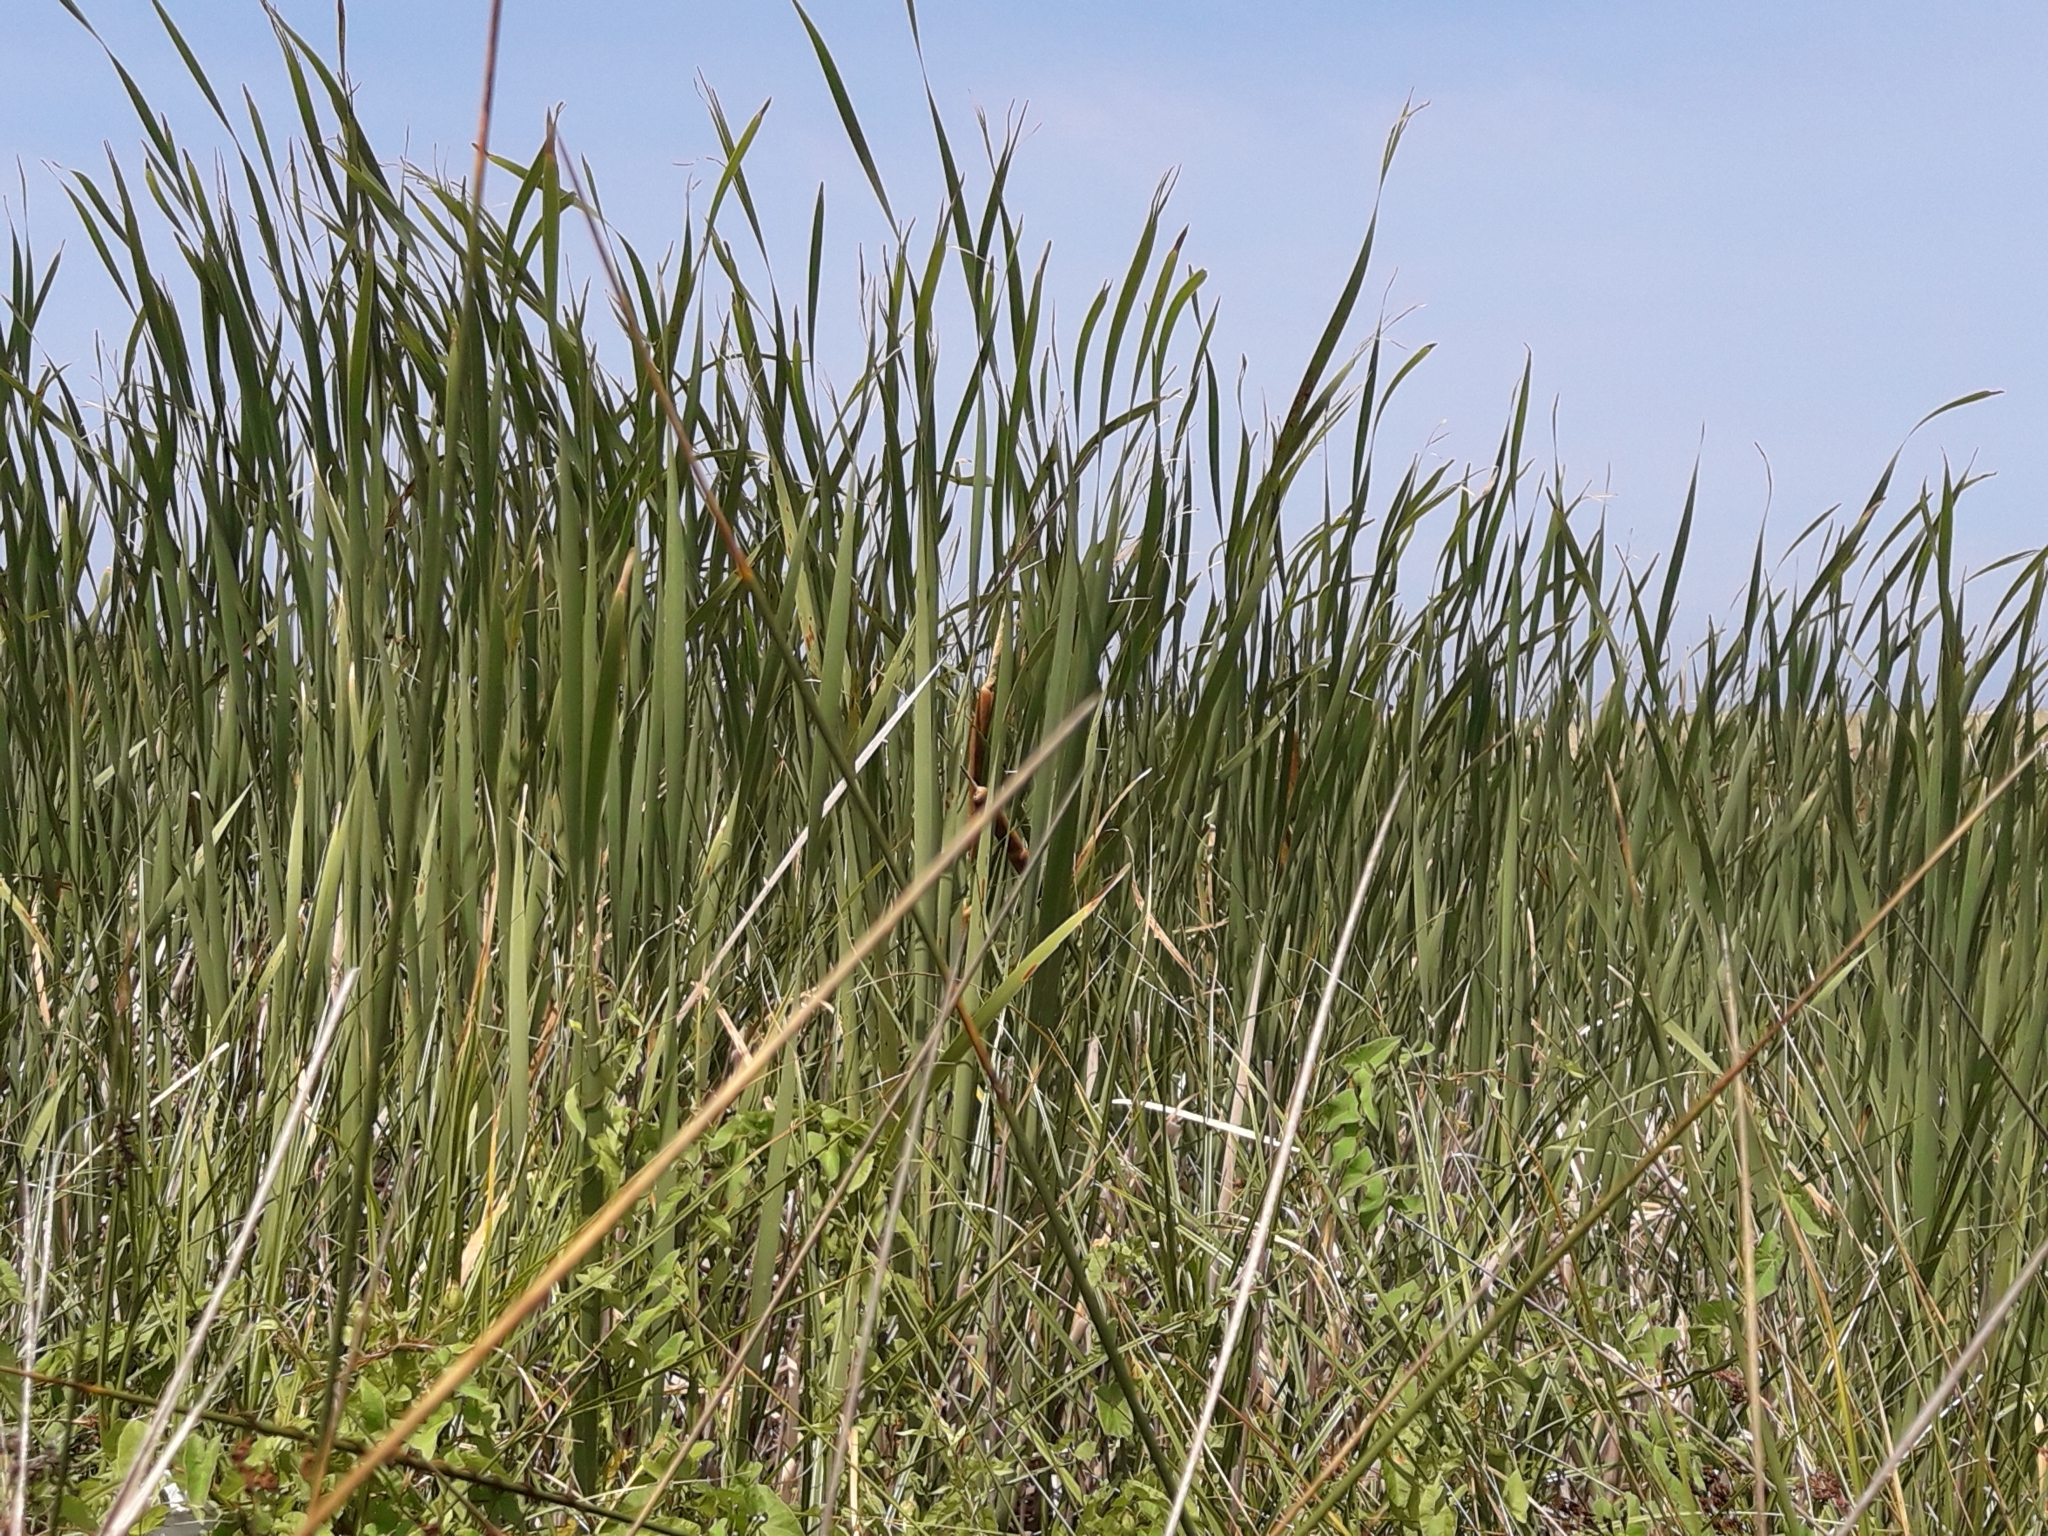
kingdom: Plantae
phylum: Tracheophyta
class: Liliopsida
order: Poales
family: Typhaceae
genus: Typha
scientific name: Typha orientalis
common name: Bullrush
